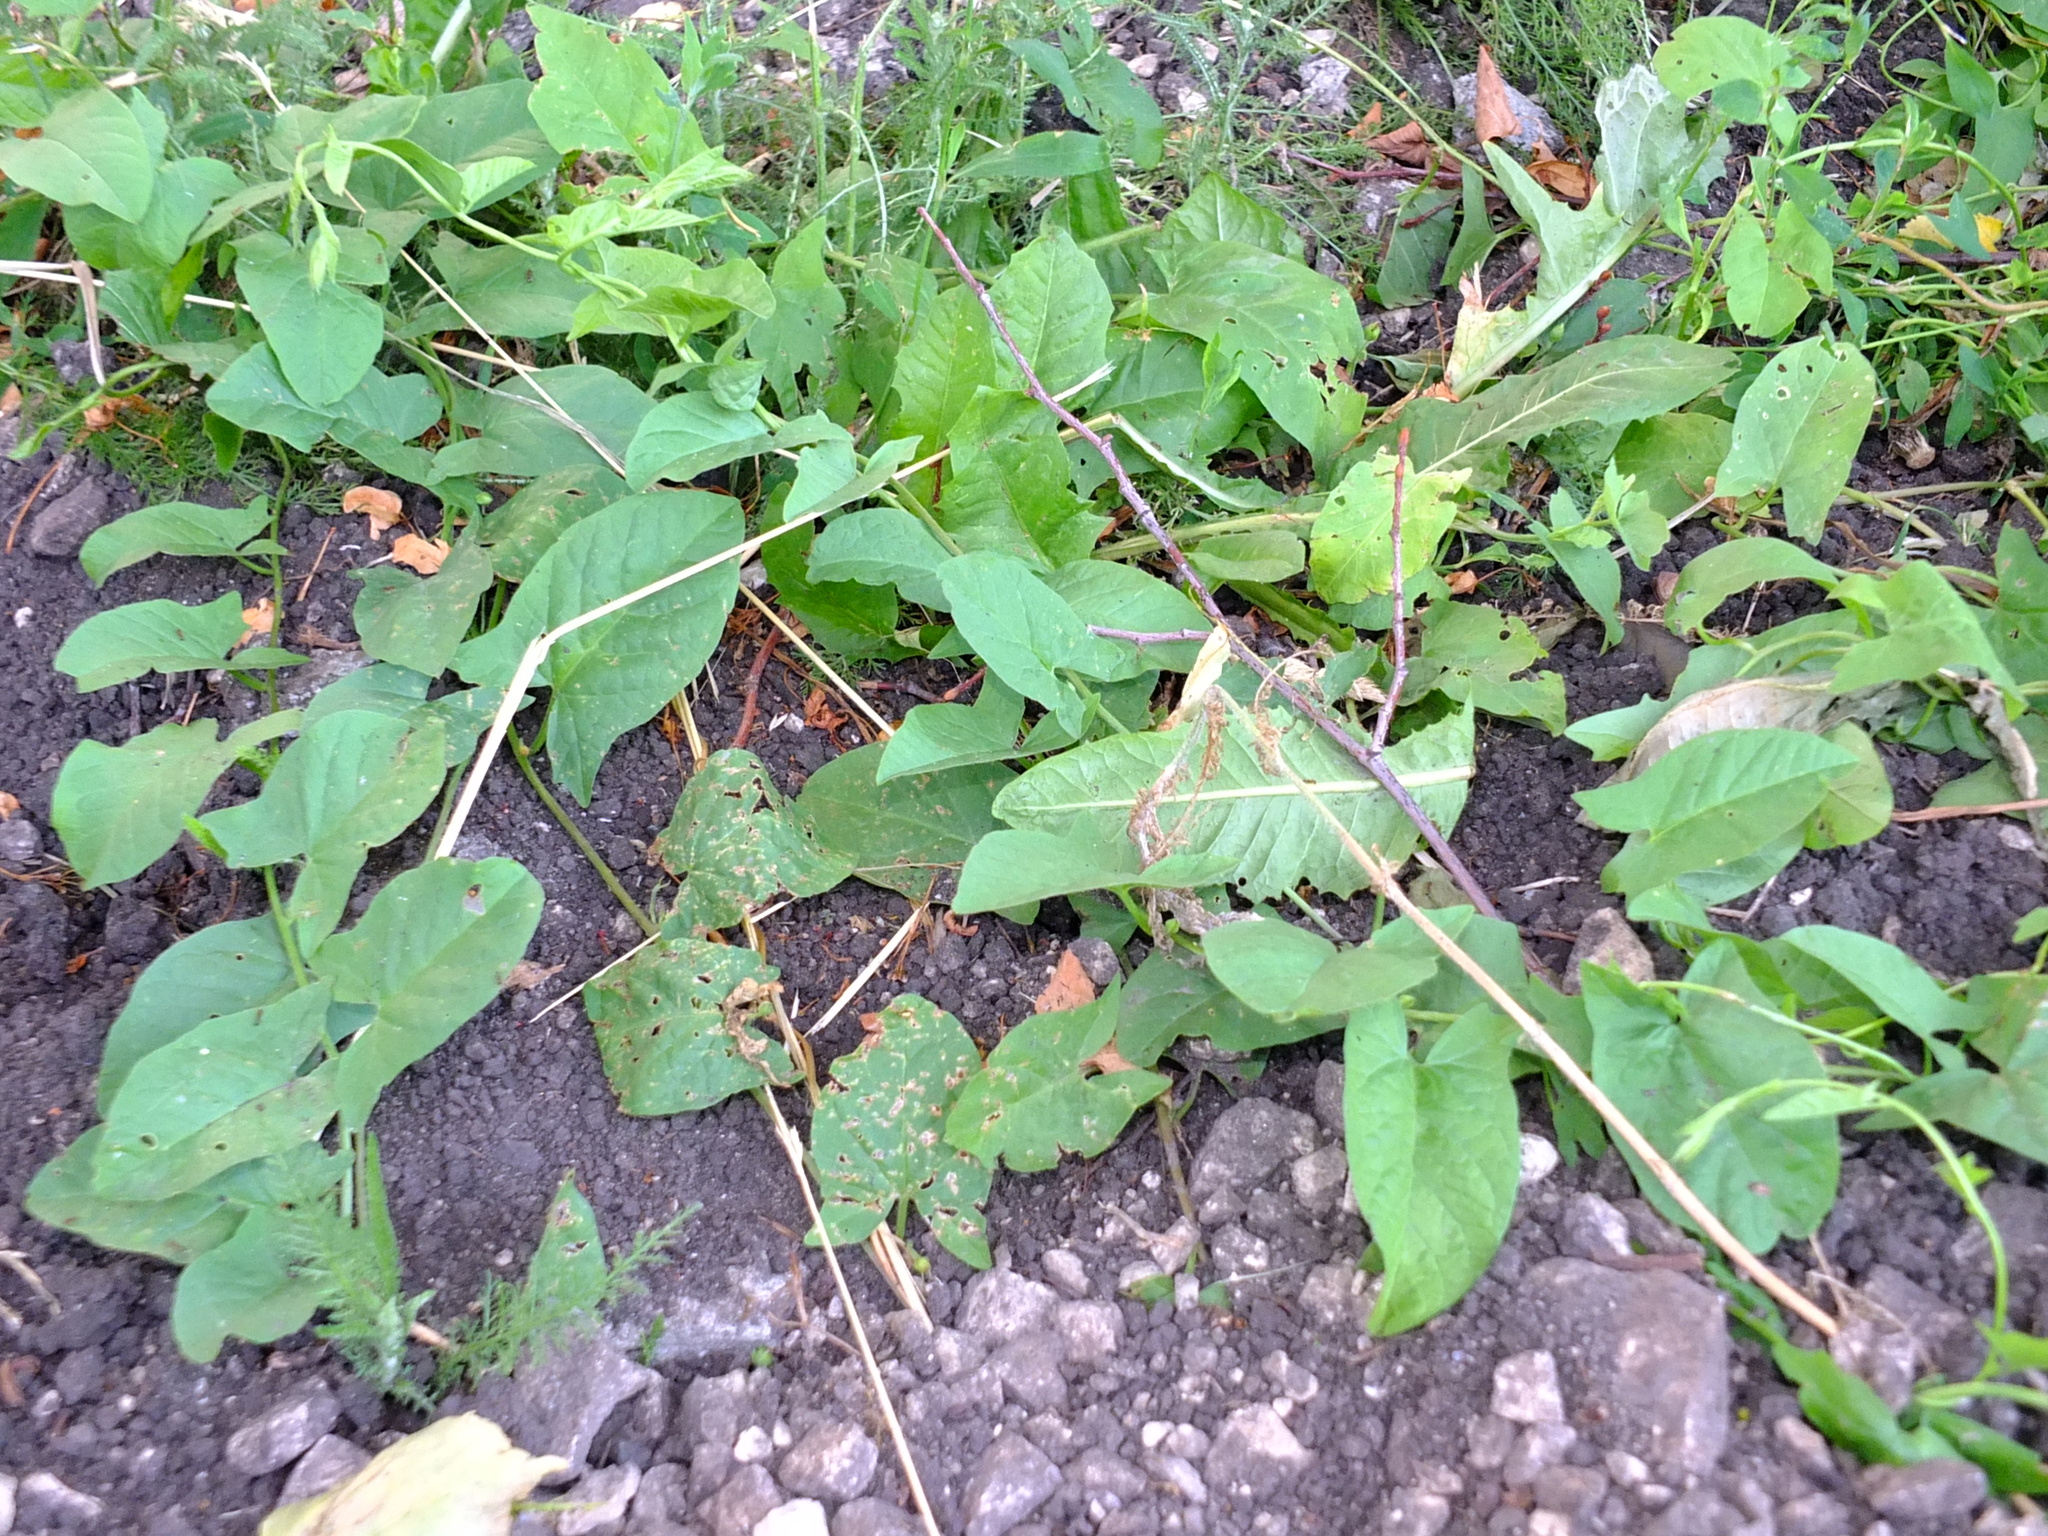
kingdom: Plantae
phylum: Tracheophyta
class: Magnoliopsida
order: Solanales
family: Convolvulaceae
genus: Convolvulus
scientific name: Convolvulus arvensis
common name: Field bindweed
